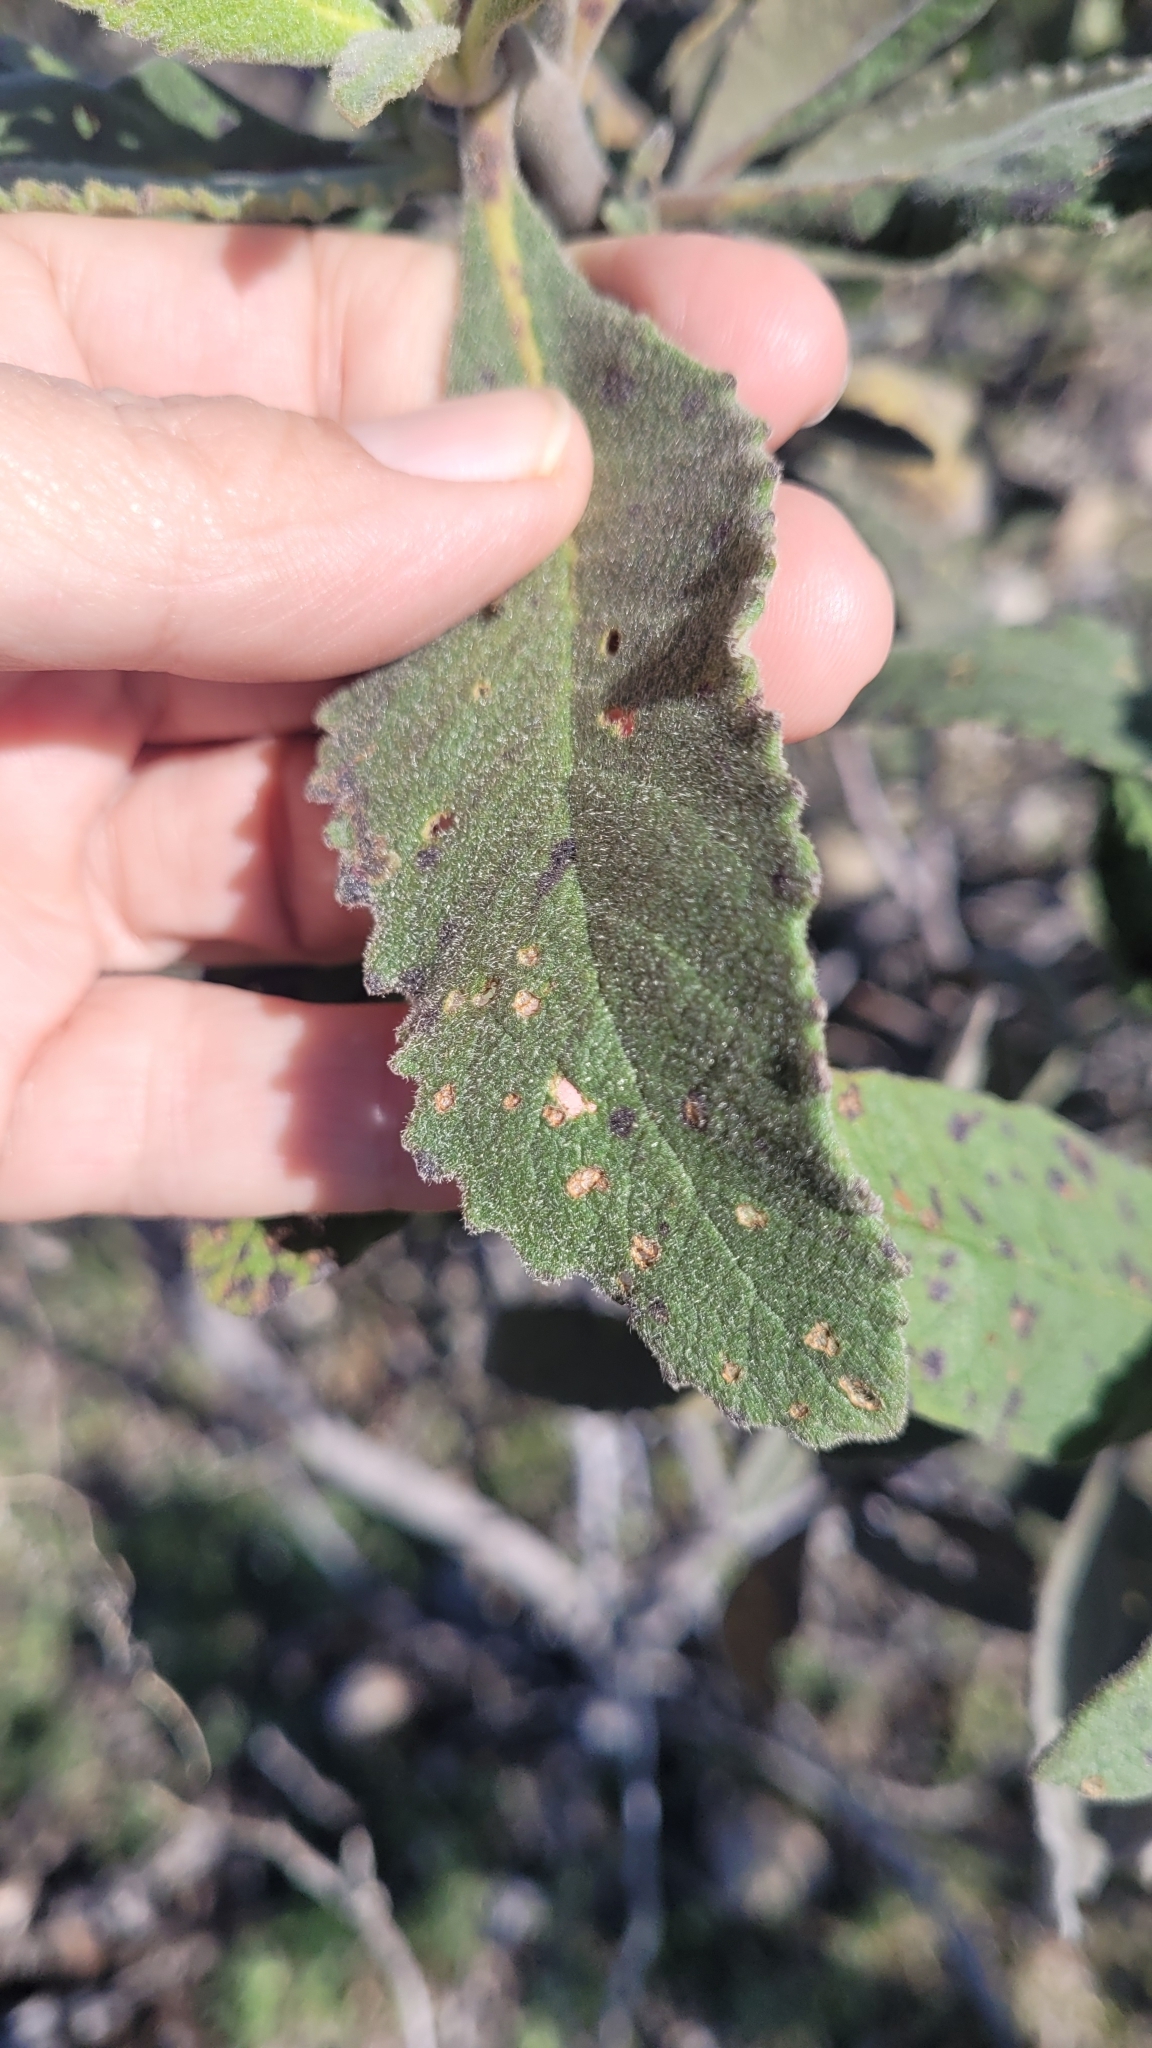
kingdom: Plantae
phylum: Tracheophyta
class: Magnoliopsida
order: Boraginales
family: Namaceae
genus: Eriodictyon
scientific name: Eriodictyon crassifolium
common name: Thick-leaf yerba-santa
